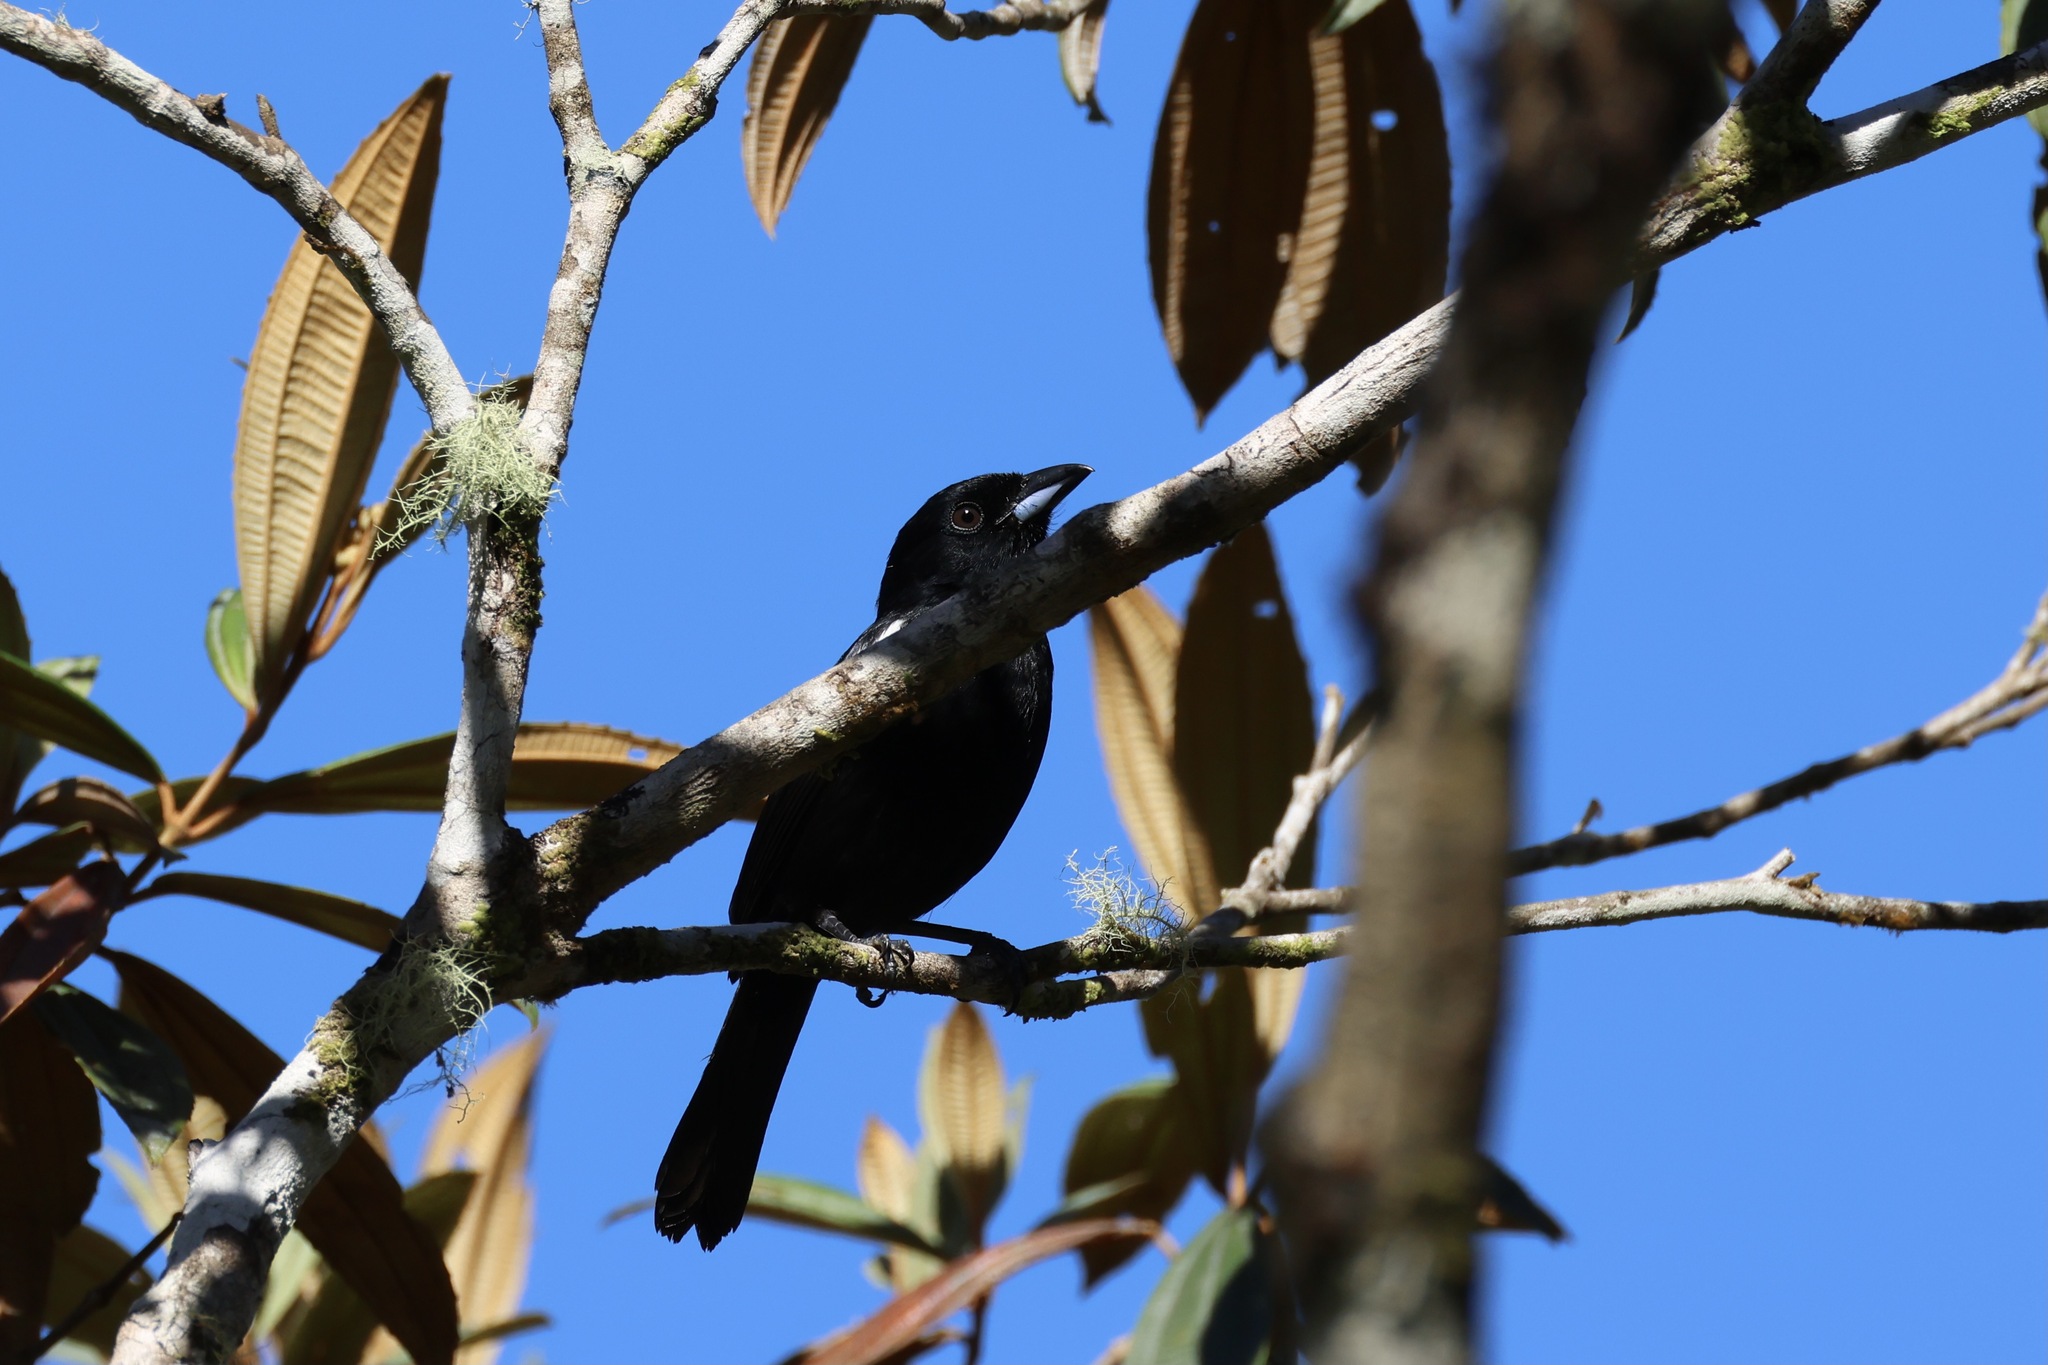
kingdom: Animalia
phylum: Chordata
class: Aves
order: Passeriformes
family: Thraupidae
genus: Loriotus
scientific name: Loriotus luctuosus
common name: White-shouldered tanager
